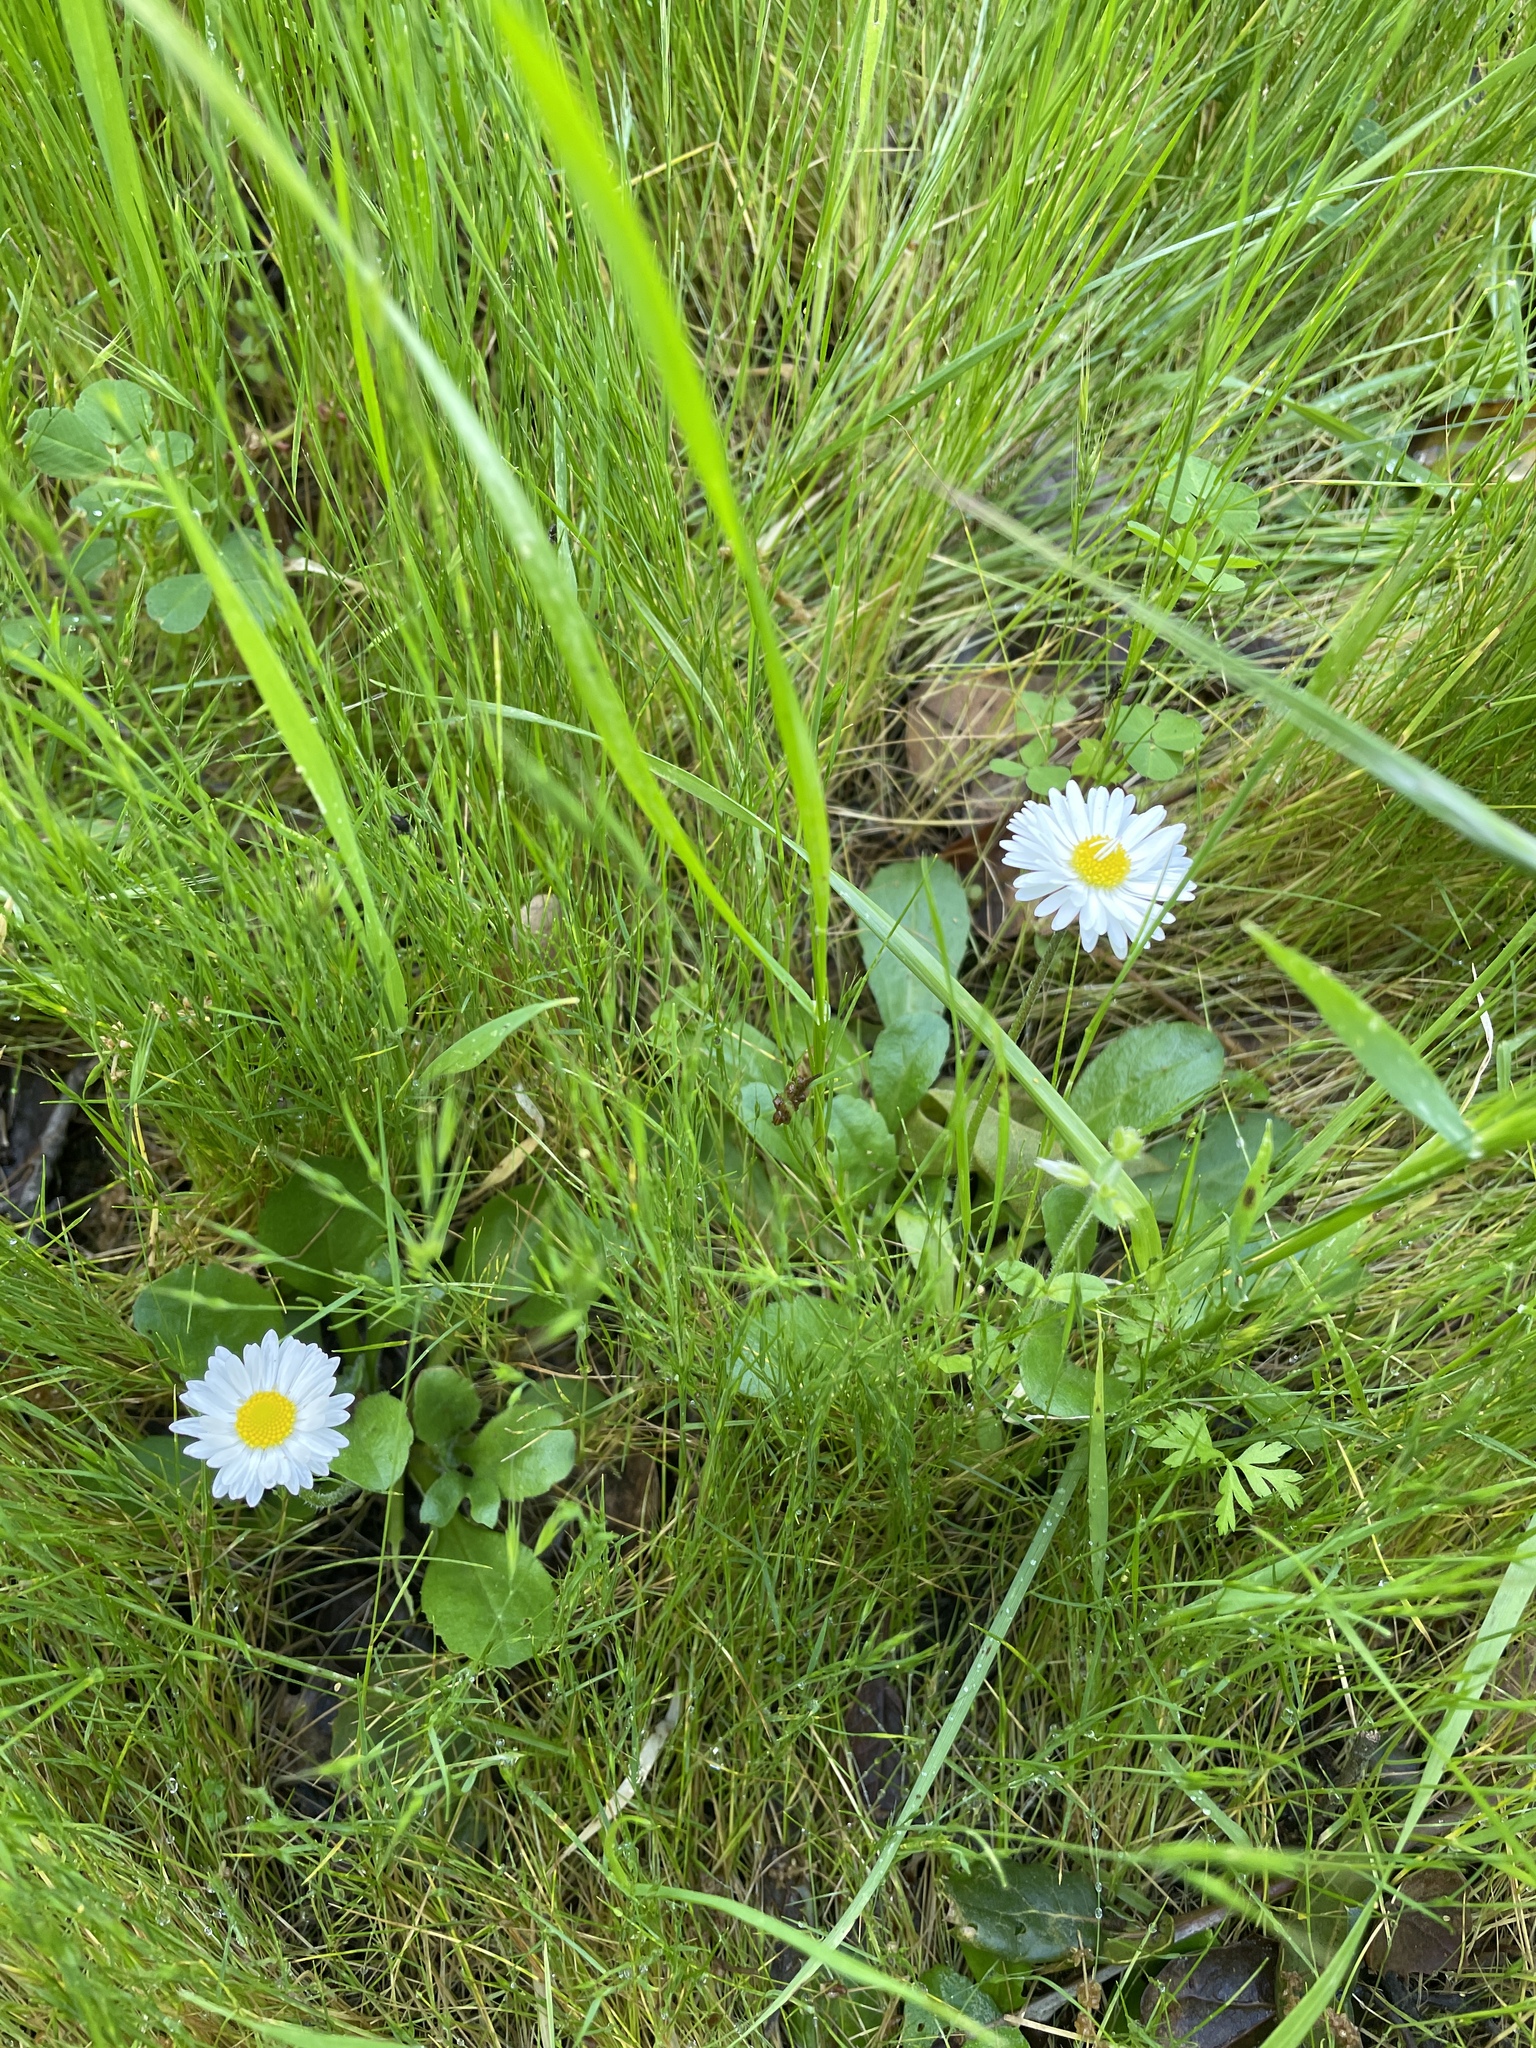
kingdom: Plantae
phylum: Tracheophyta
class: Magnoliopsida
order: Asterales
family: Asteraceae
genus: Bellis
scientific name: Bellis perennis
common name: Lawndaisy
